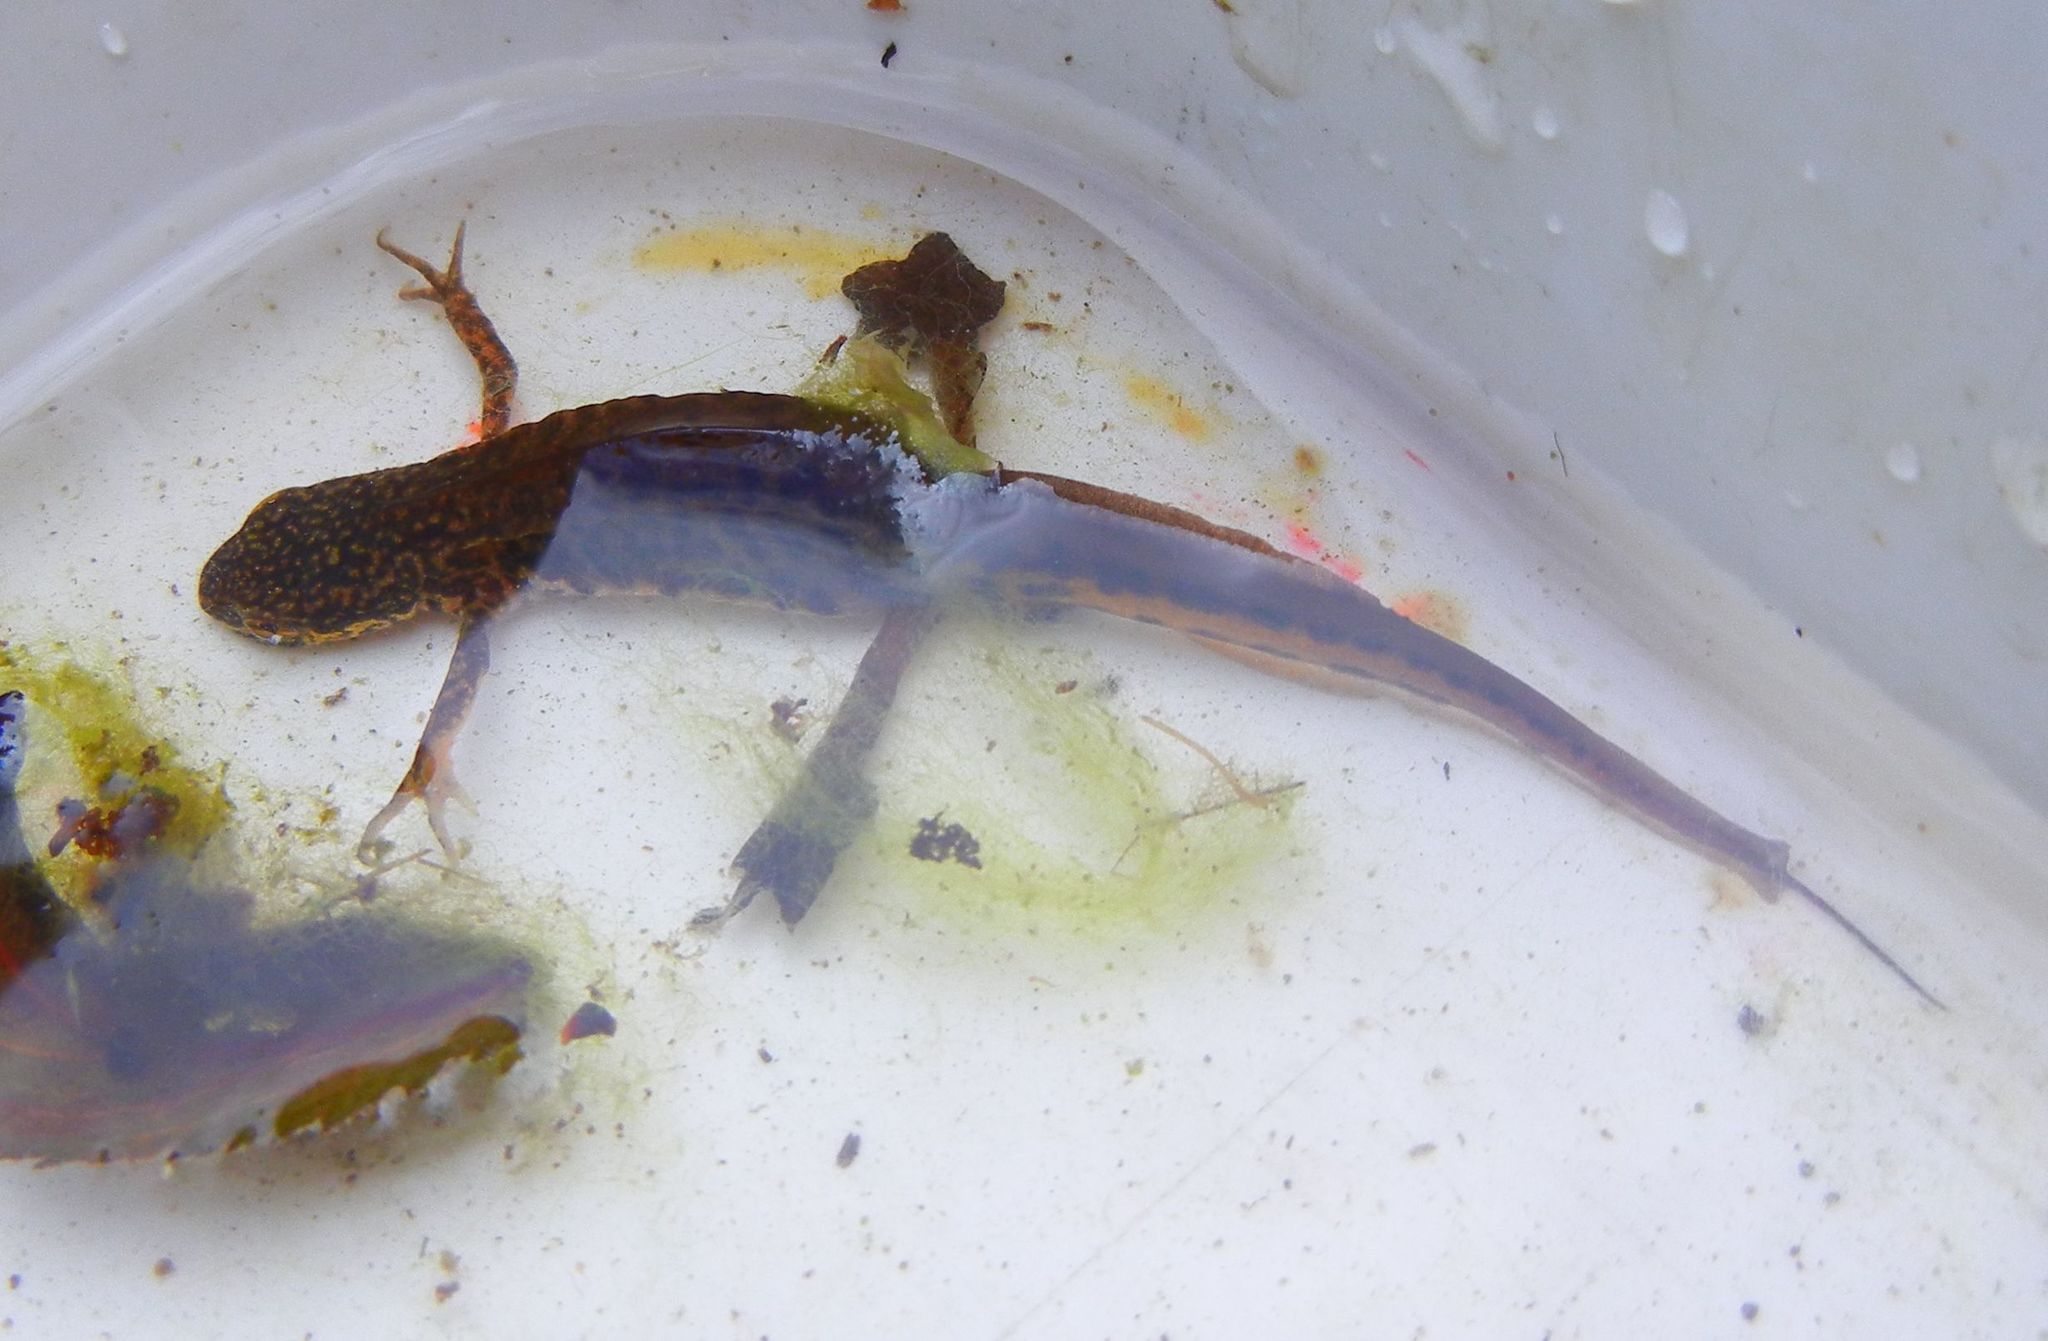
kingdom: Animalia
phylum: Chordata
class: Amphibia
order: Caudata
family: Salamandridae
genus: Lissotriton
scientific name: Lissotriton helveticus
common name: Palmate newt
